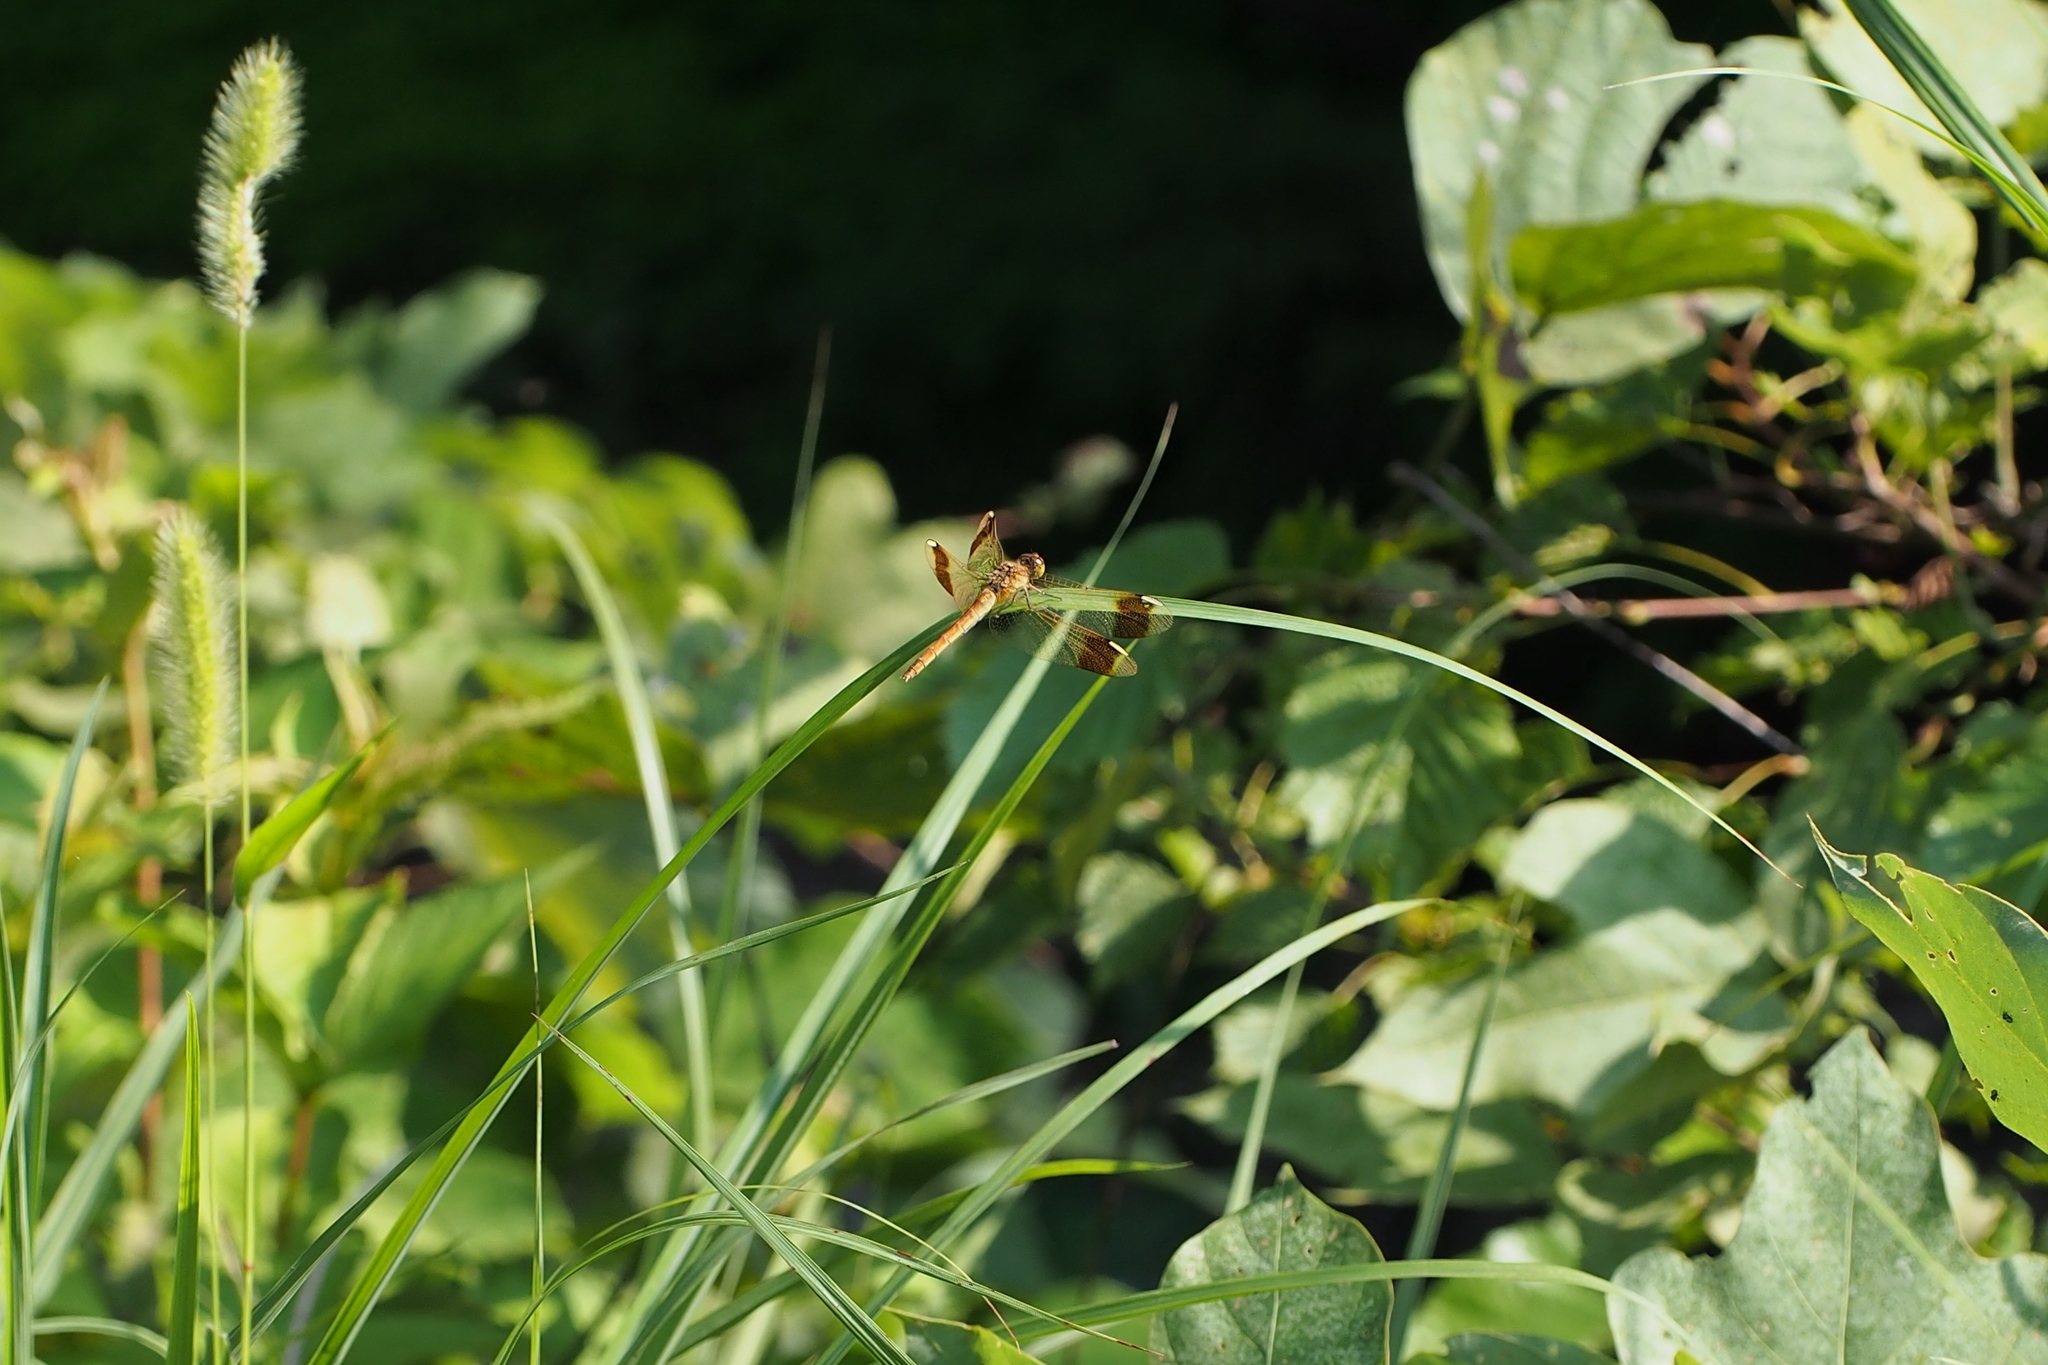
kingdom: Animalia
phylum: Arthropoda
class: Insecta
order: Odonata
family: Libellulidae
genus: Sympetrum
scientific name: Sympetrum pedemontanum
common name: Banded darter
